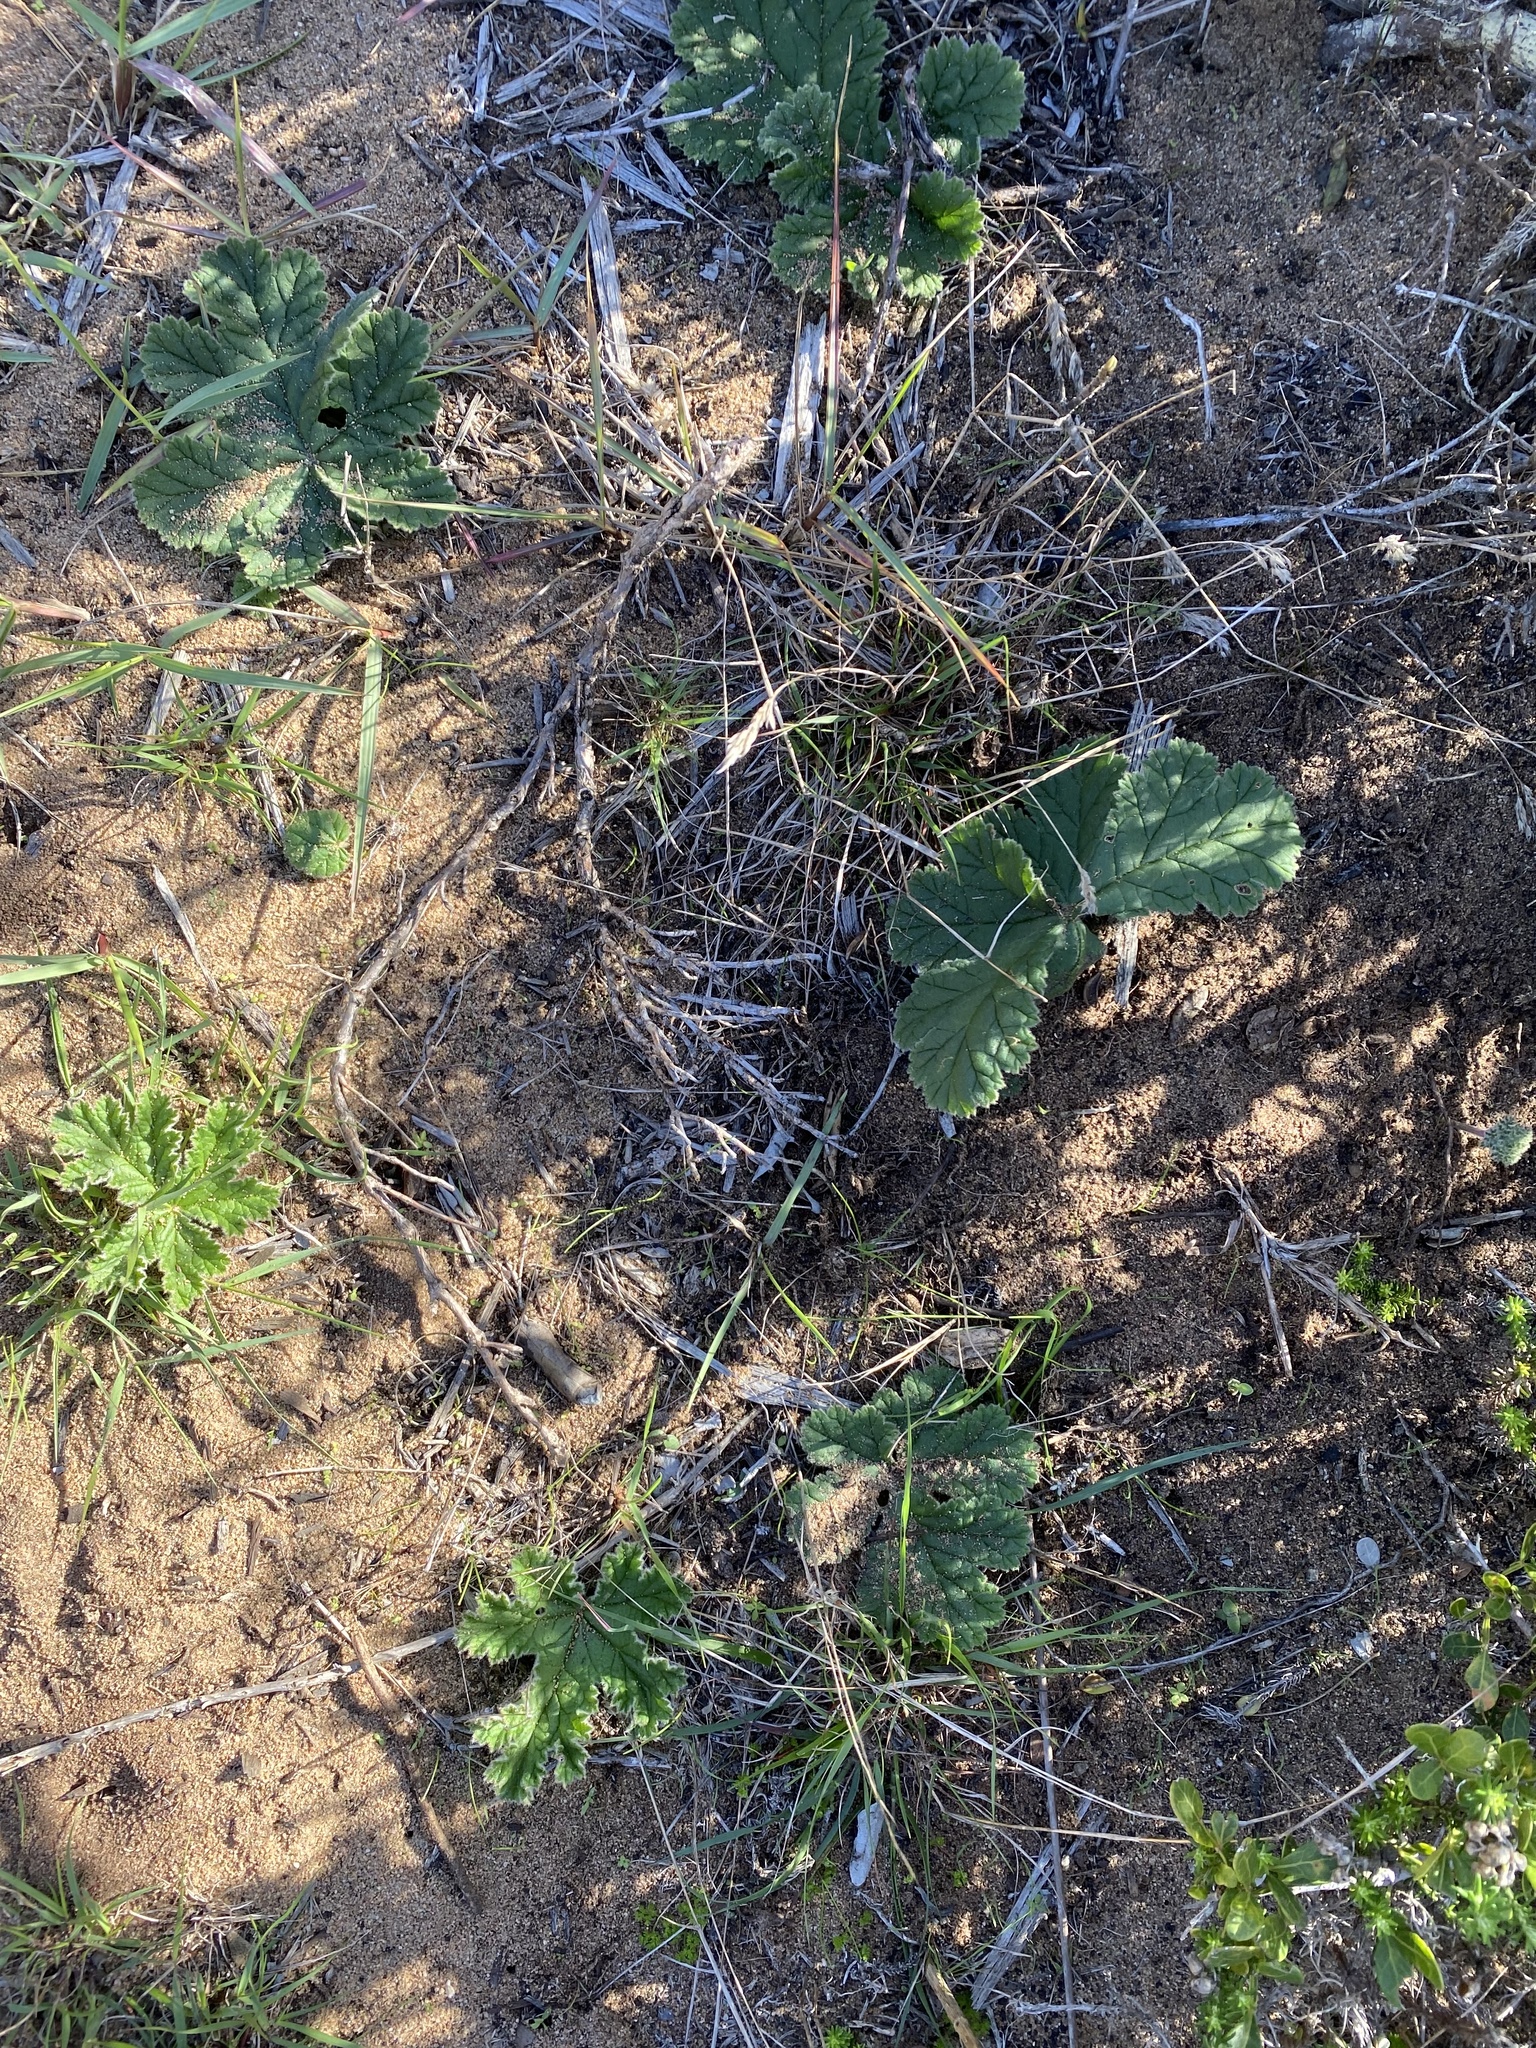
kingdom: Plantae
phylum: Tracheophyta
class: Magnoliopsida
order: Geraniales
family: Geraniaceae
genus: Pelargonium
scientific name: Pelargonium lobatum
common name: Vine-leaf pelargonium
